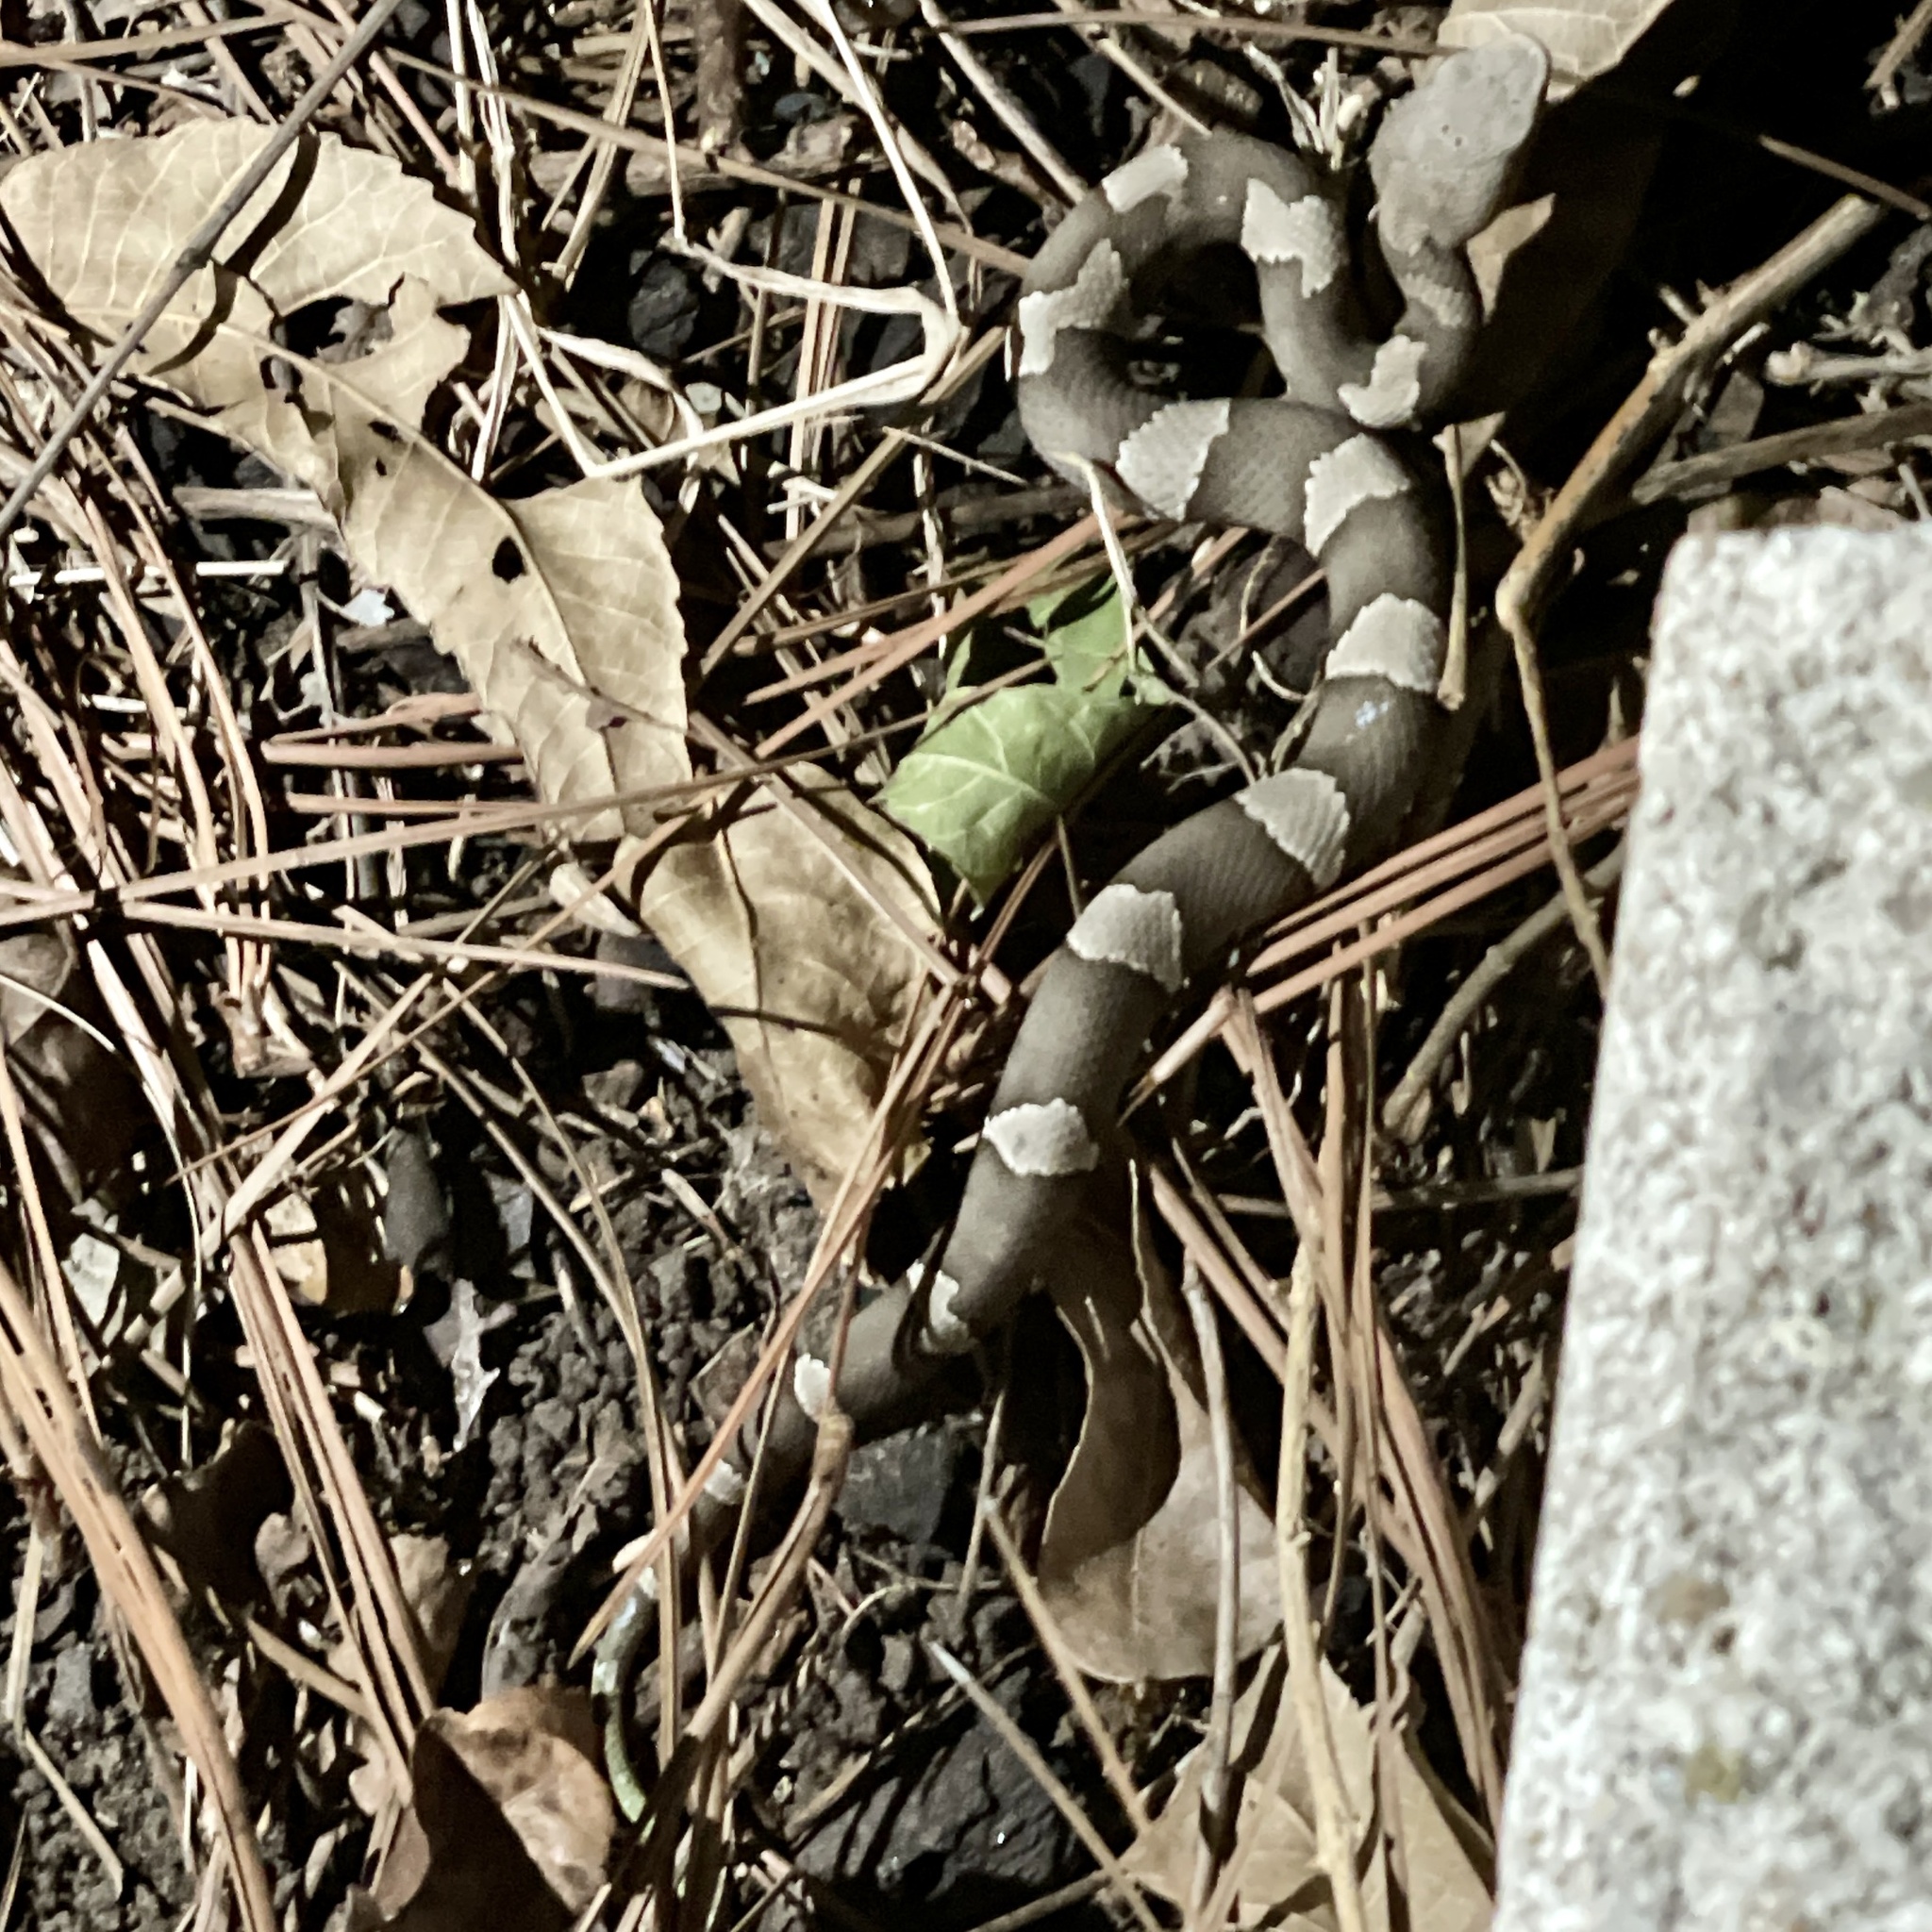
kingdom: Animalia
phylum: Chordata
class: Squamata
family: Viperidae
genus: Agkistrodon
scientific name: Agkistrodon laticinctus
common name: Broad-banded copperhead
